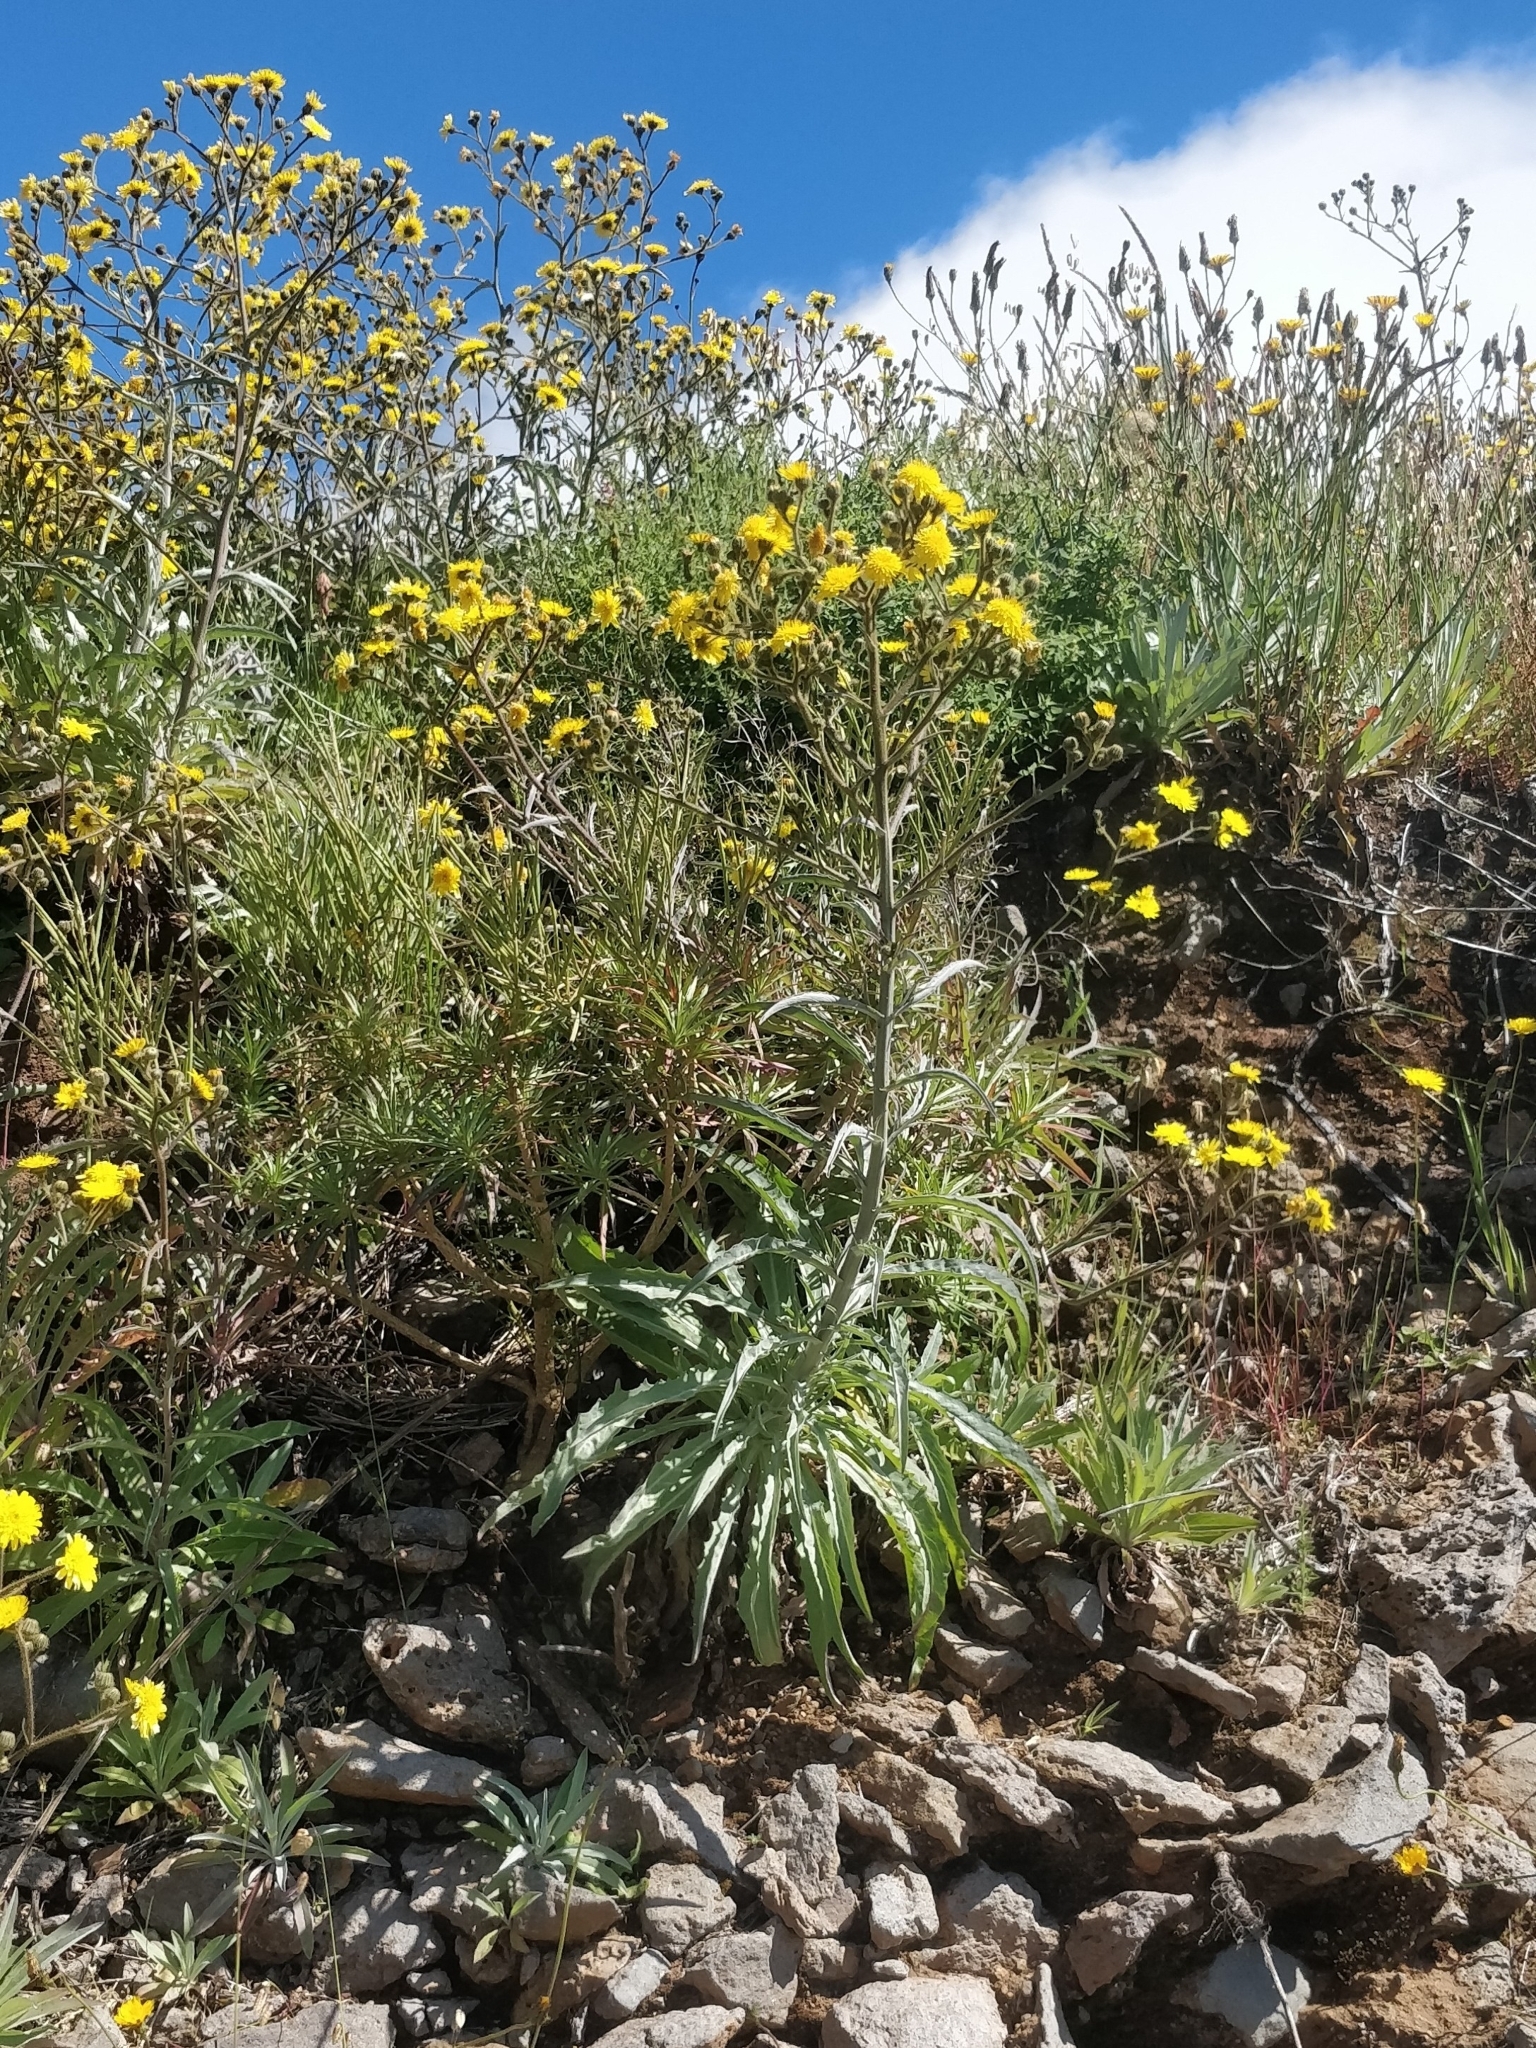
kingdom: Plantae
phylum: Tracheophyta
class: Magnoliopsida
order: Asterales
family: Asteraceae
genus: Andryala
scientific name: Andryala glandulosa
